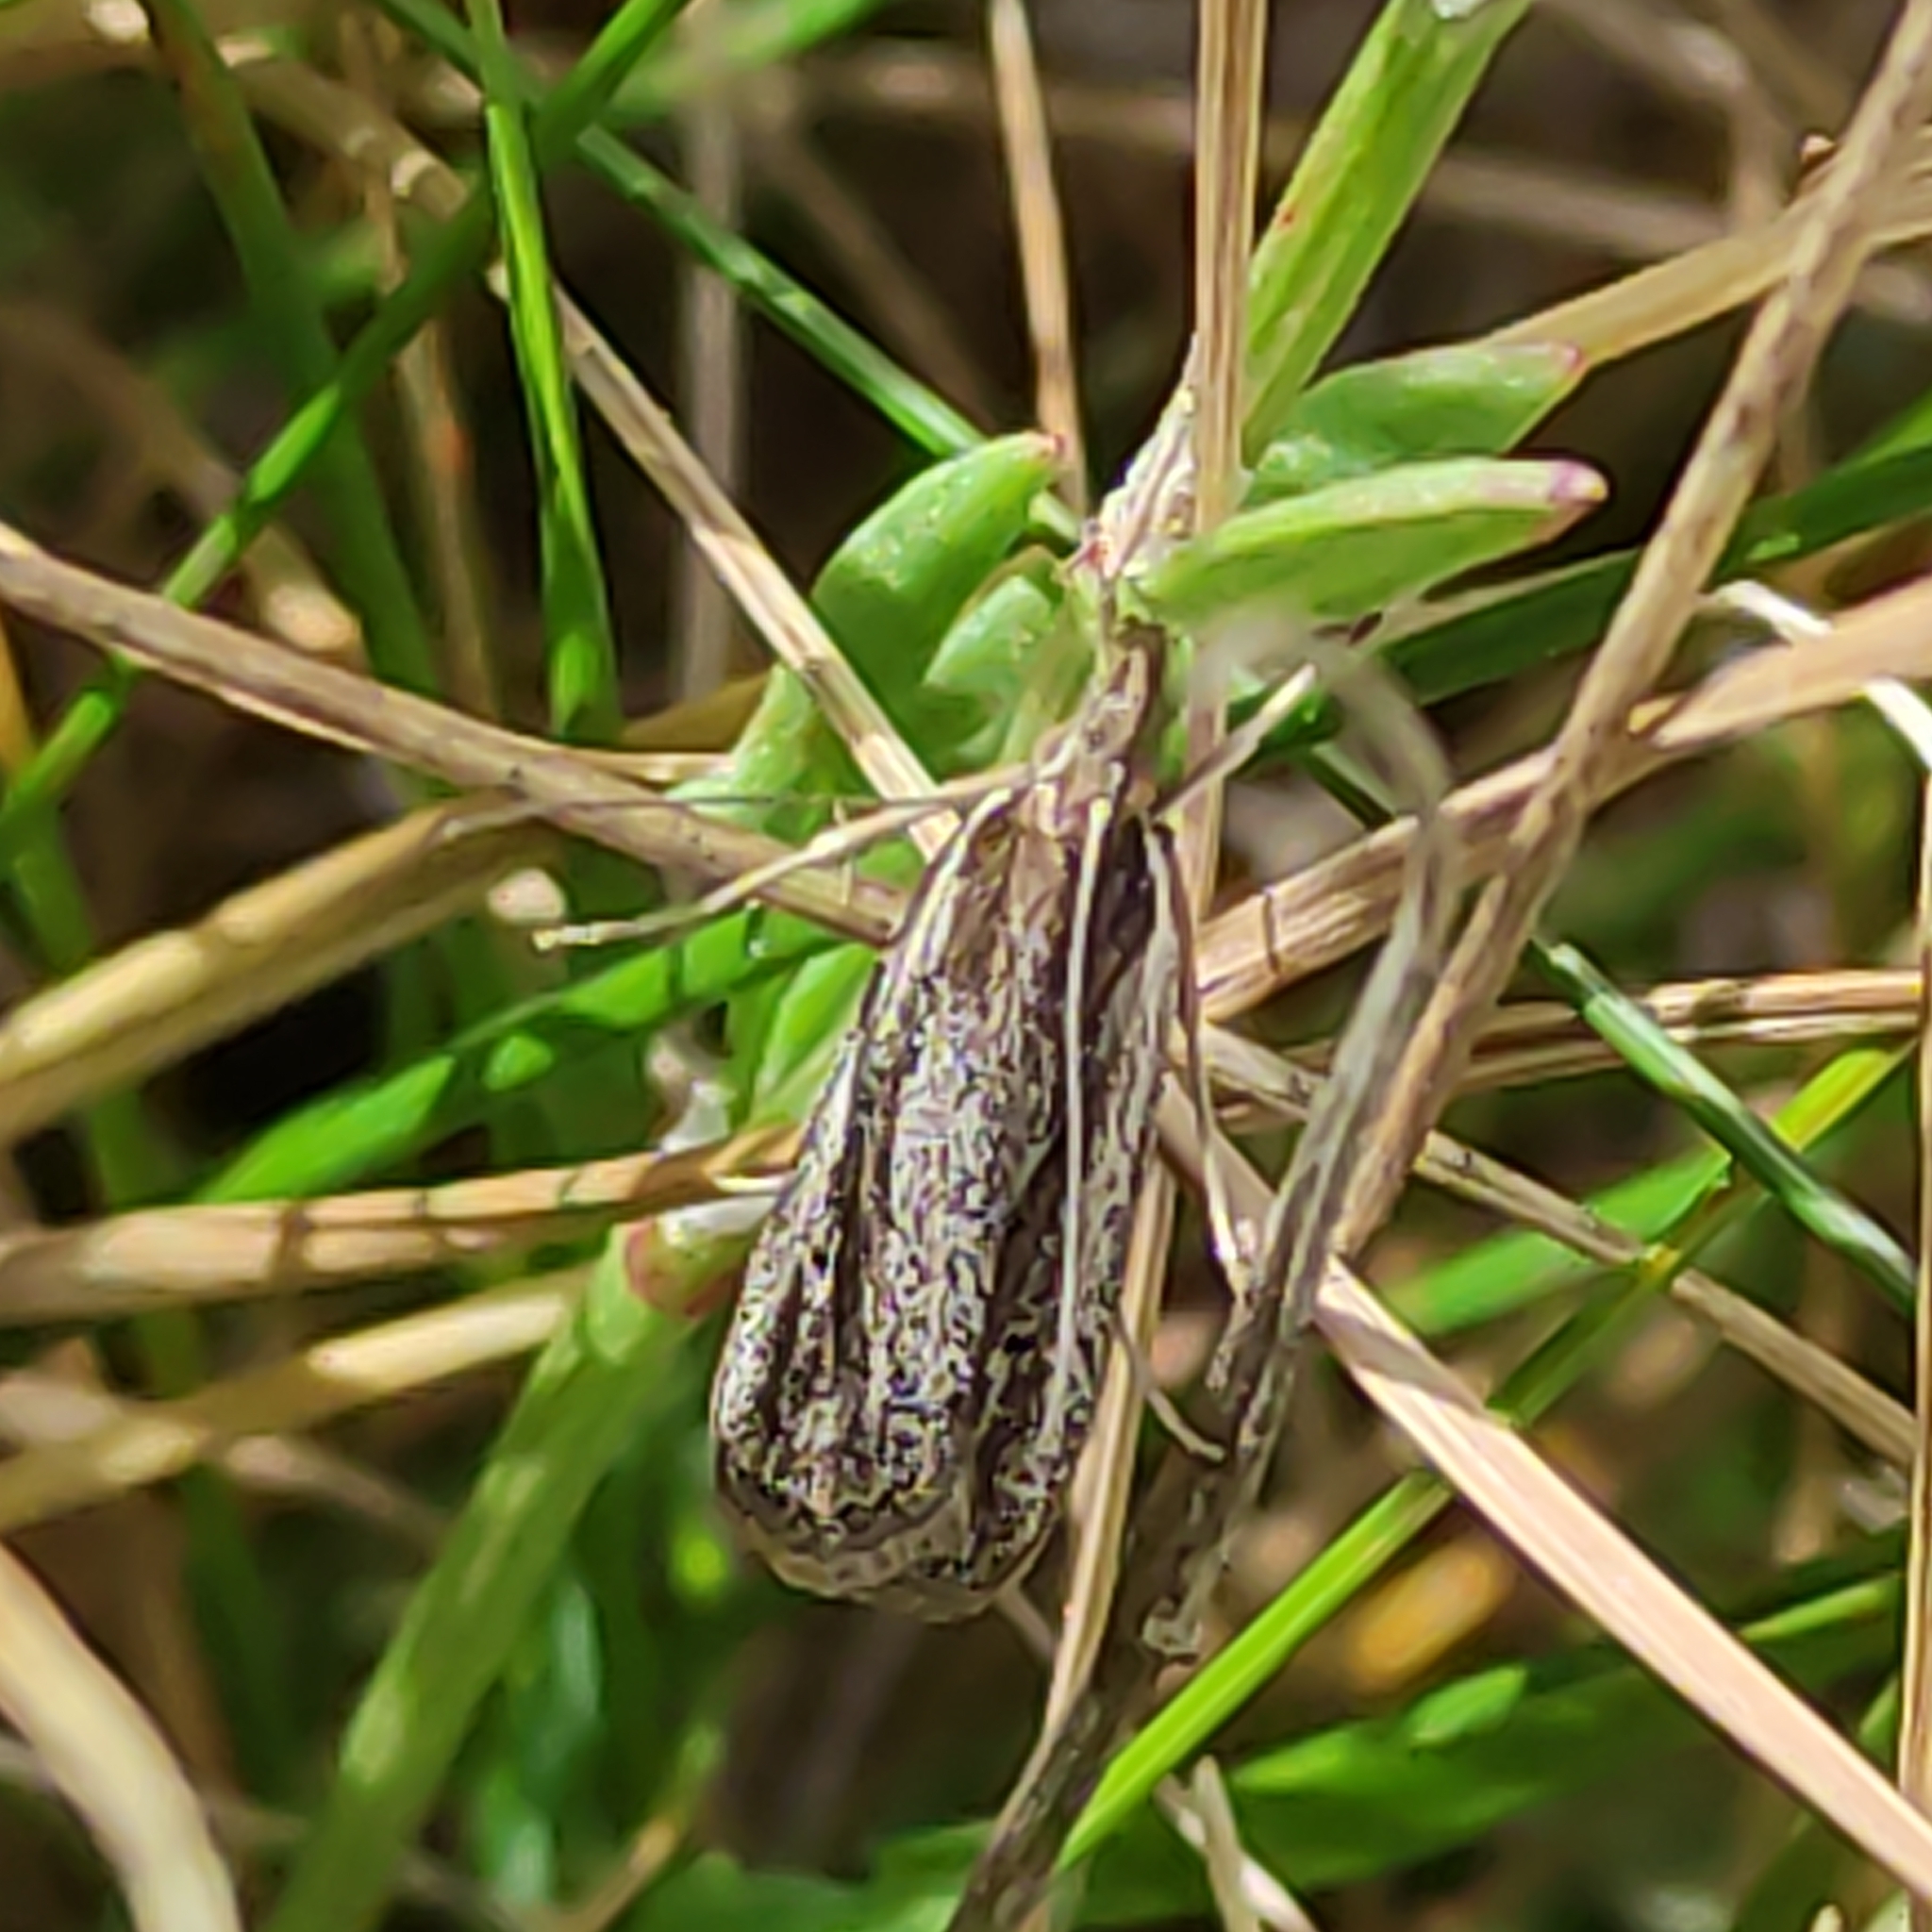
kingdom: Animalia
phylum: Arthropoda
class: Insecta
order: Lepidoptera
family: Crambidae
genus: Eudonia
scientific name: Eudonia sabulosella
